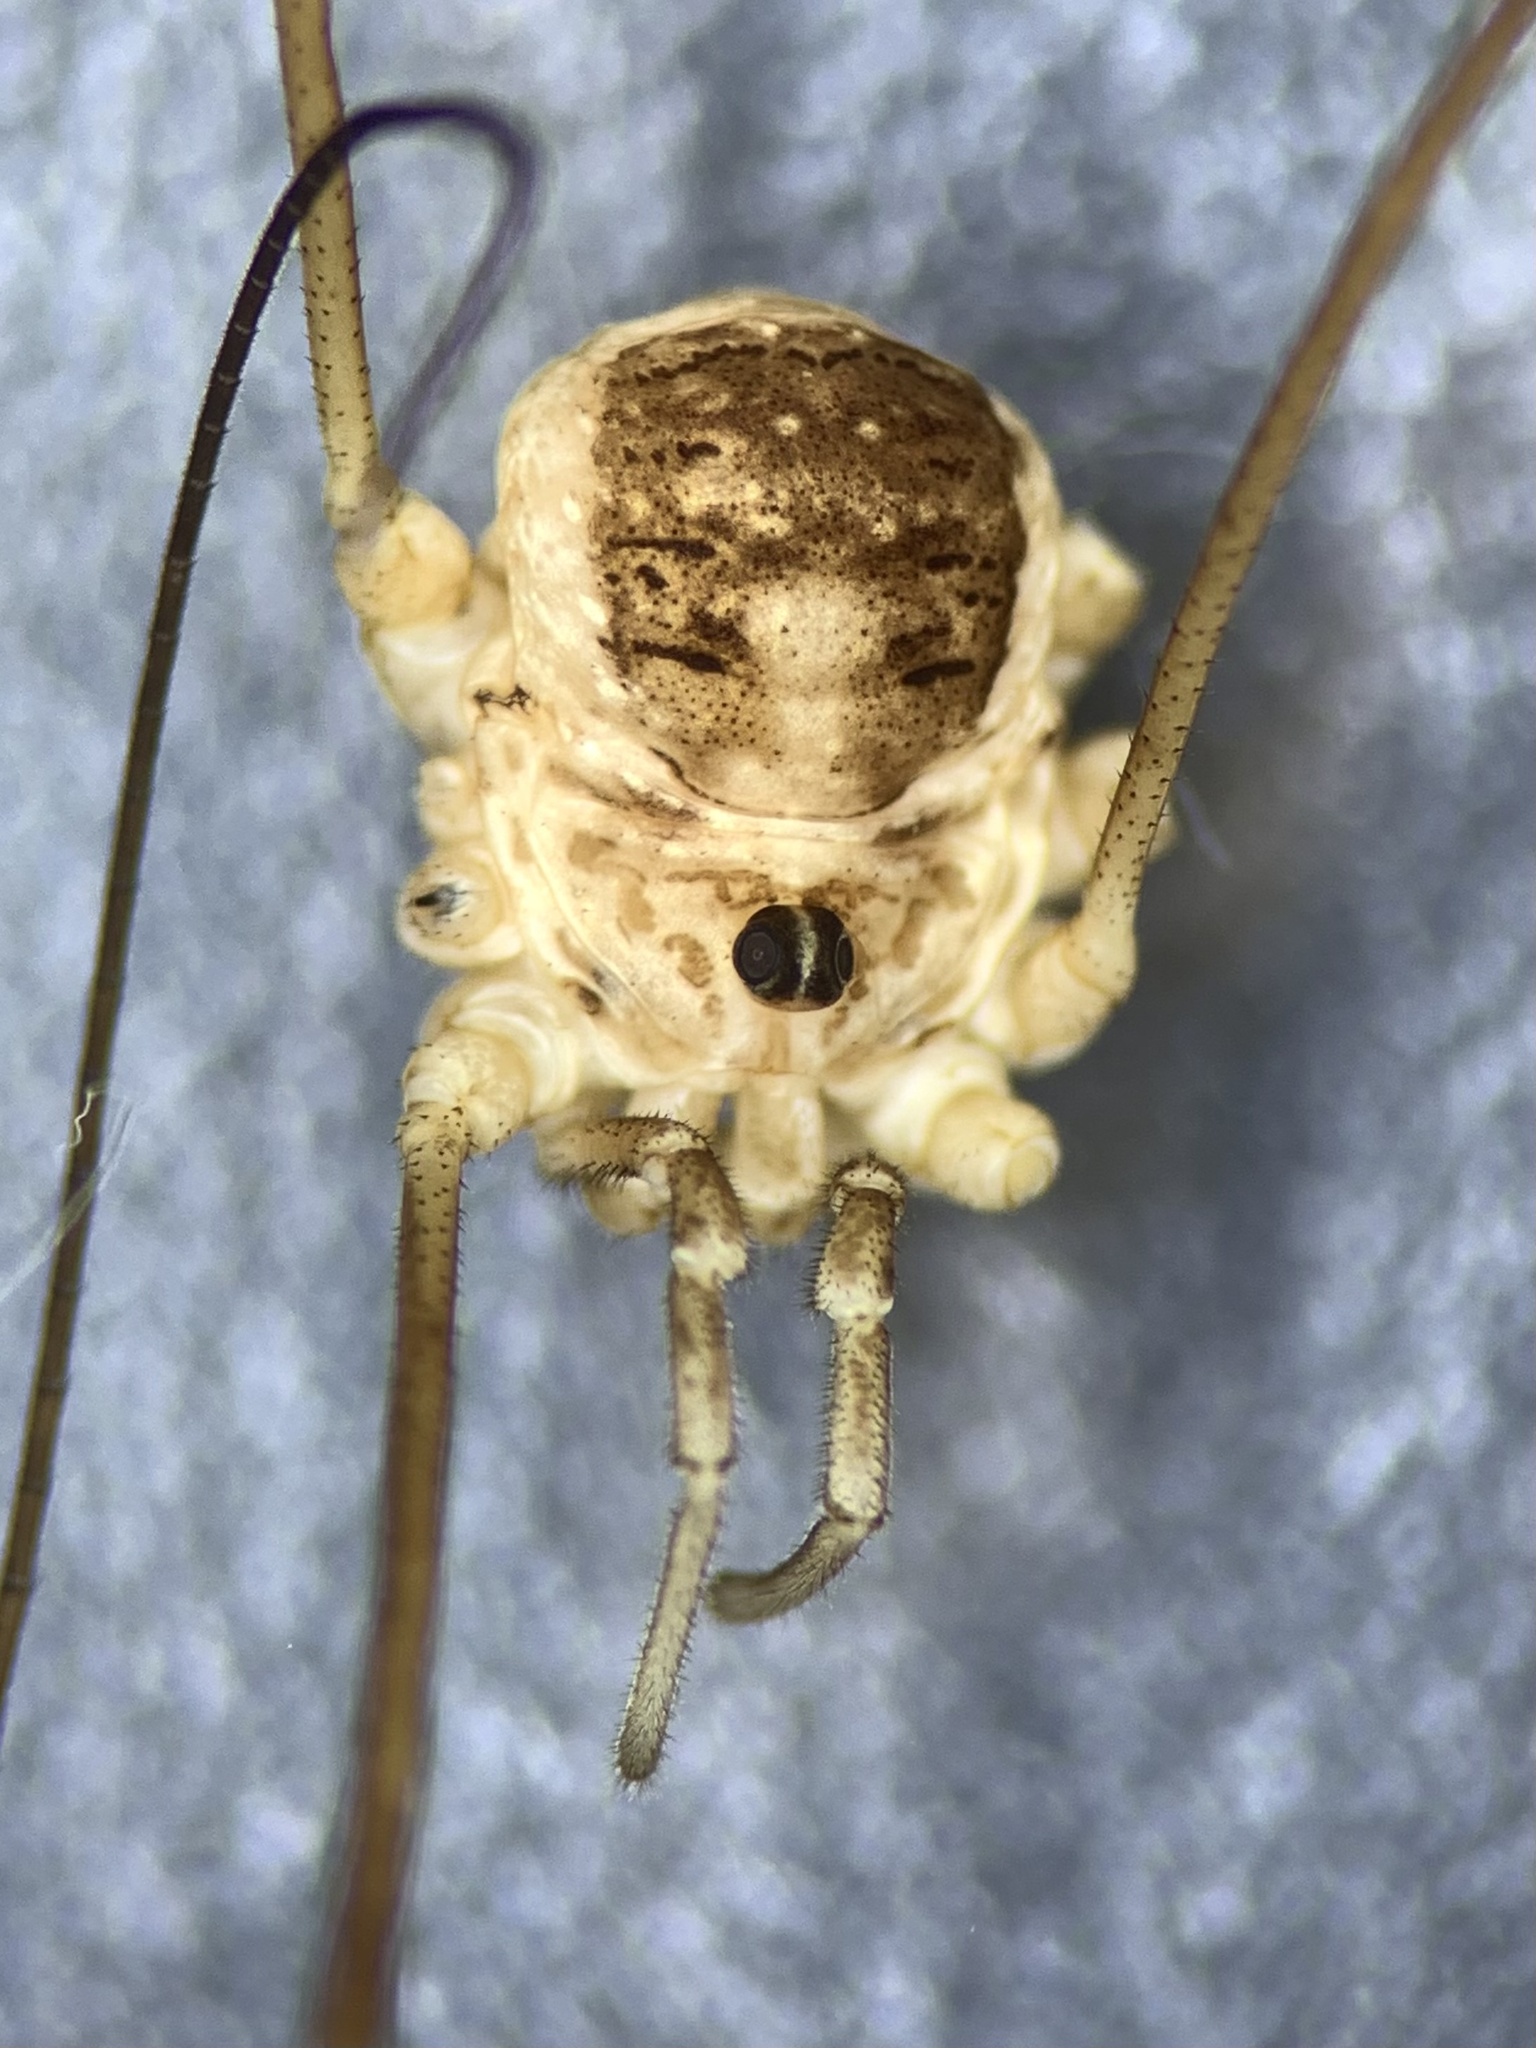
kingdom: Animalia
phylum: Arthropoda
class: Arachnida
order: Opiliones
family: Phalangiidae
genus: Amilenus
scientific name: Amilenus aurantiacus
